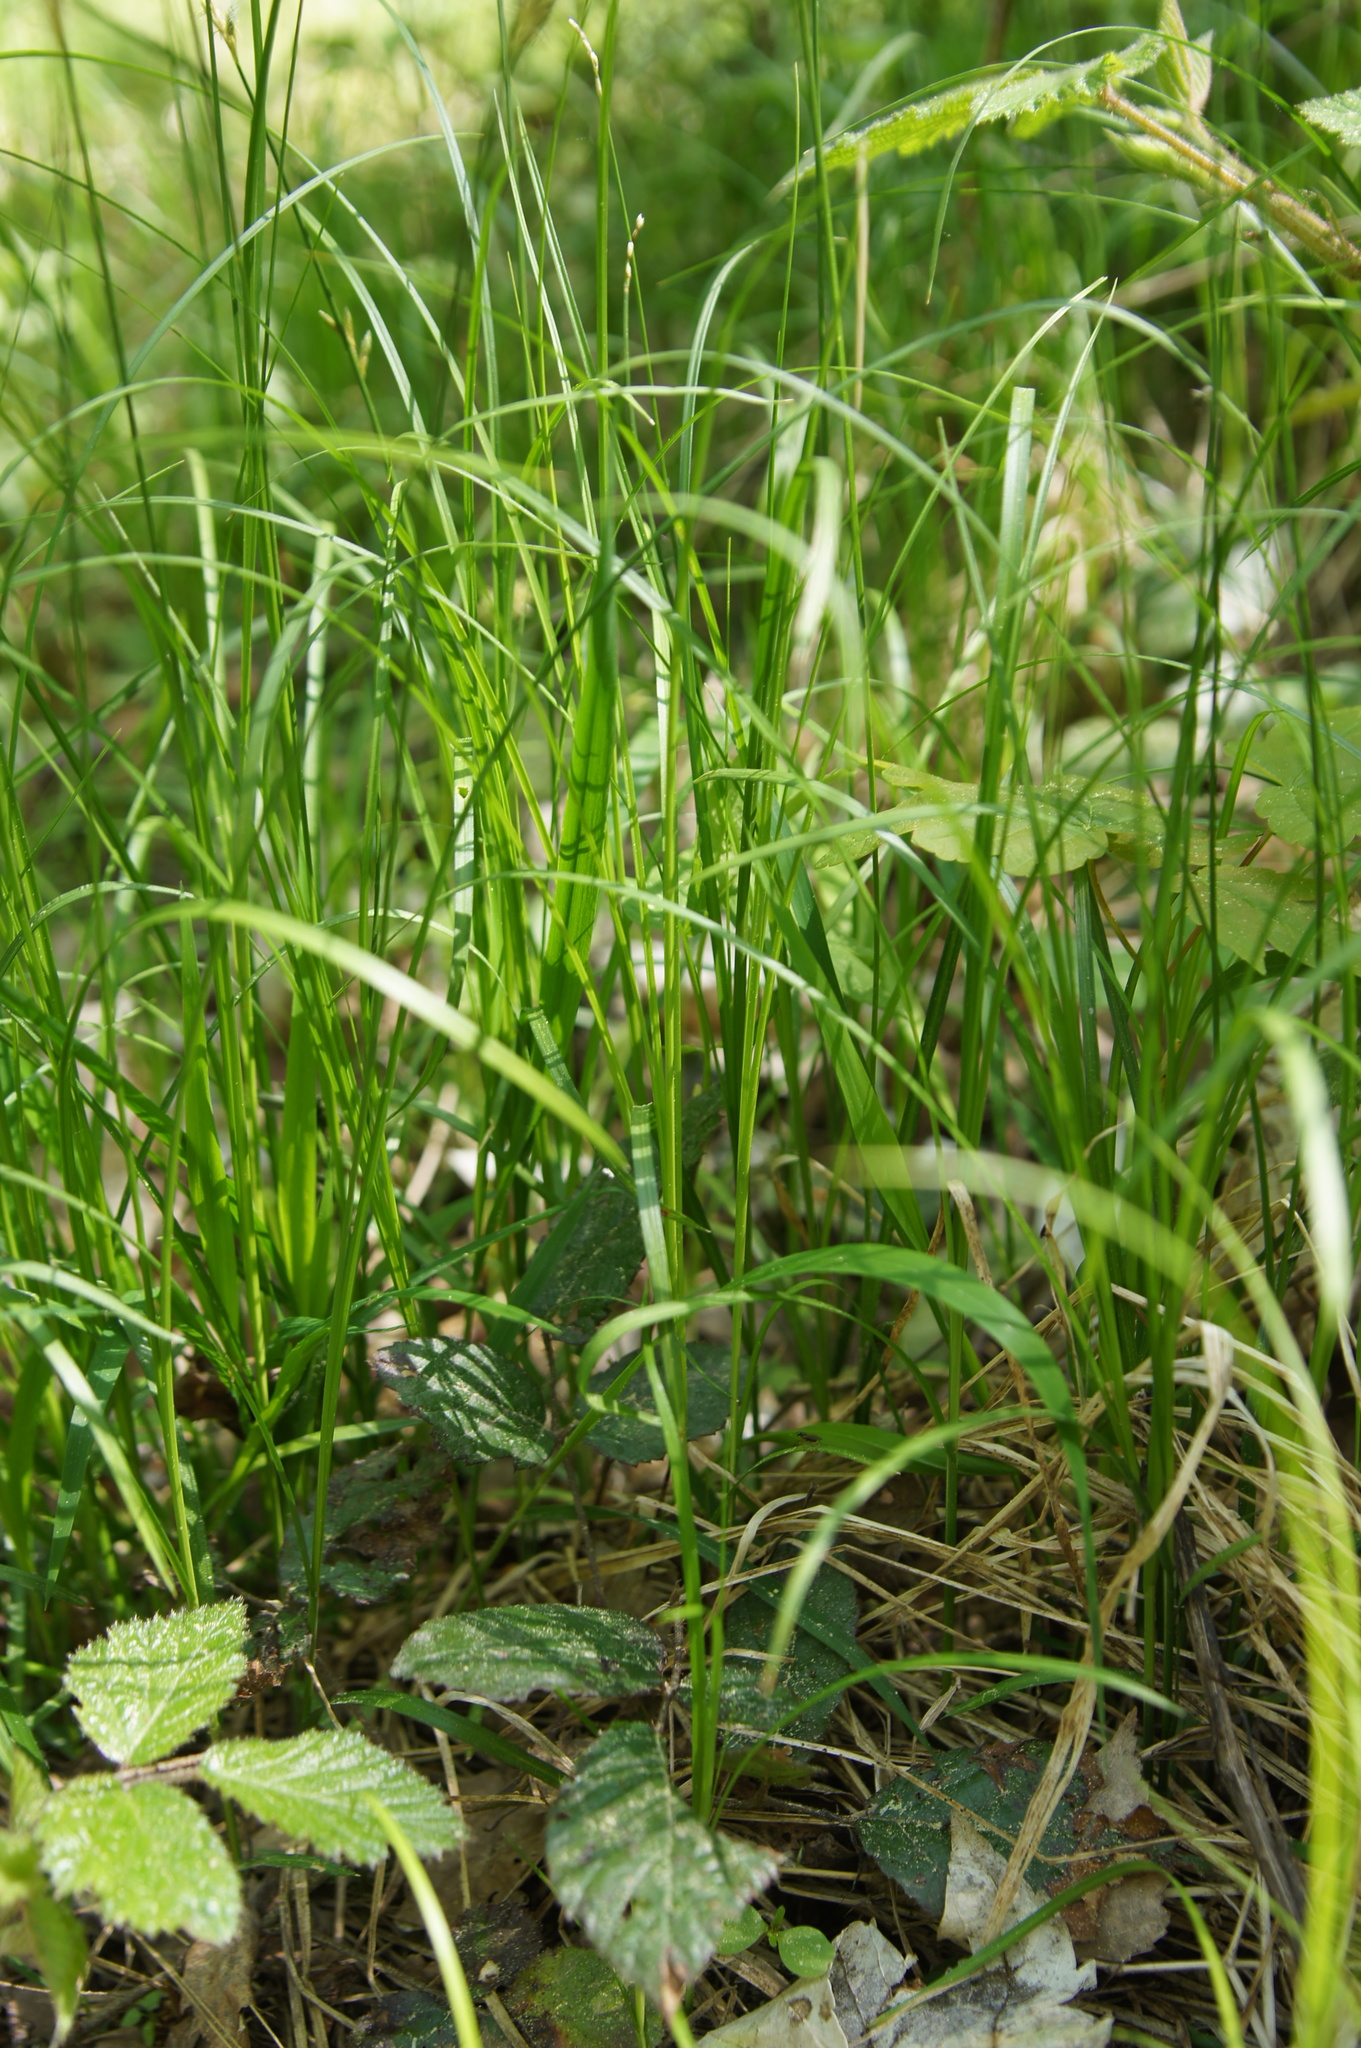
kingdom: Plantae
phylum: Tracheophyta
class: Liliopsida
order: Poales
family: Cyperaceae
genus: Carex
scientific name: Carex brizoides
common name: Quaking-grass sedge
